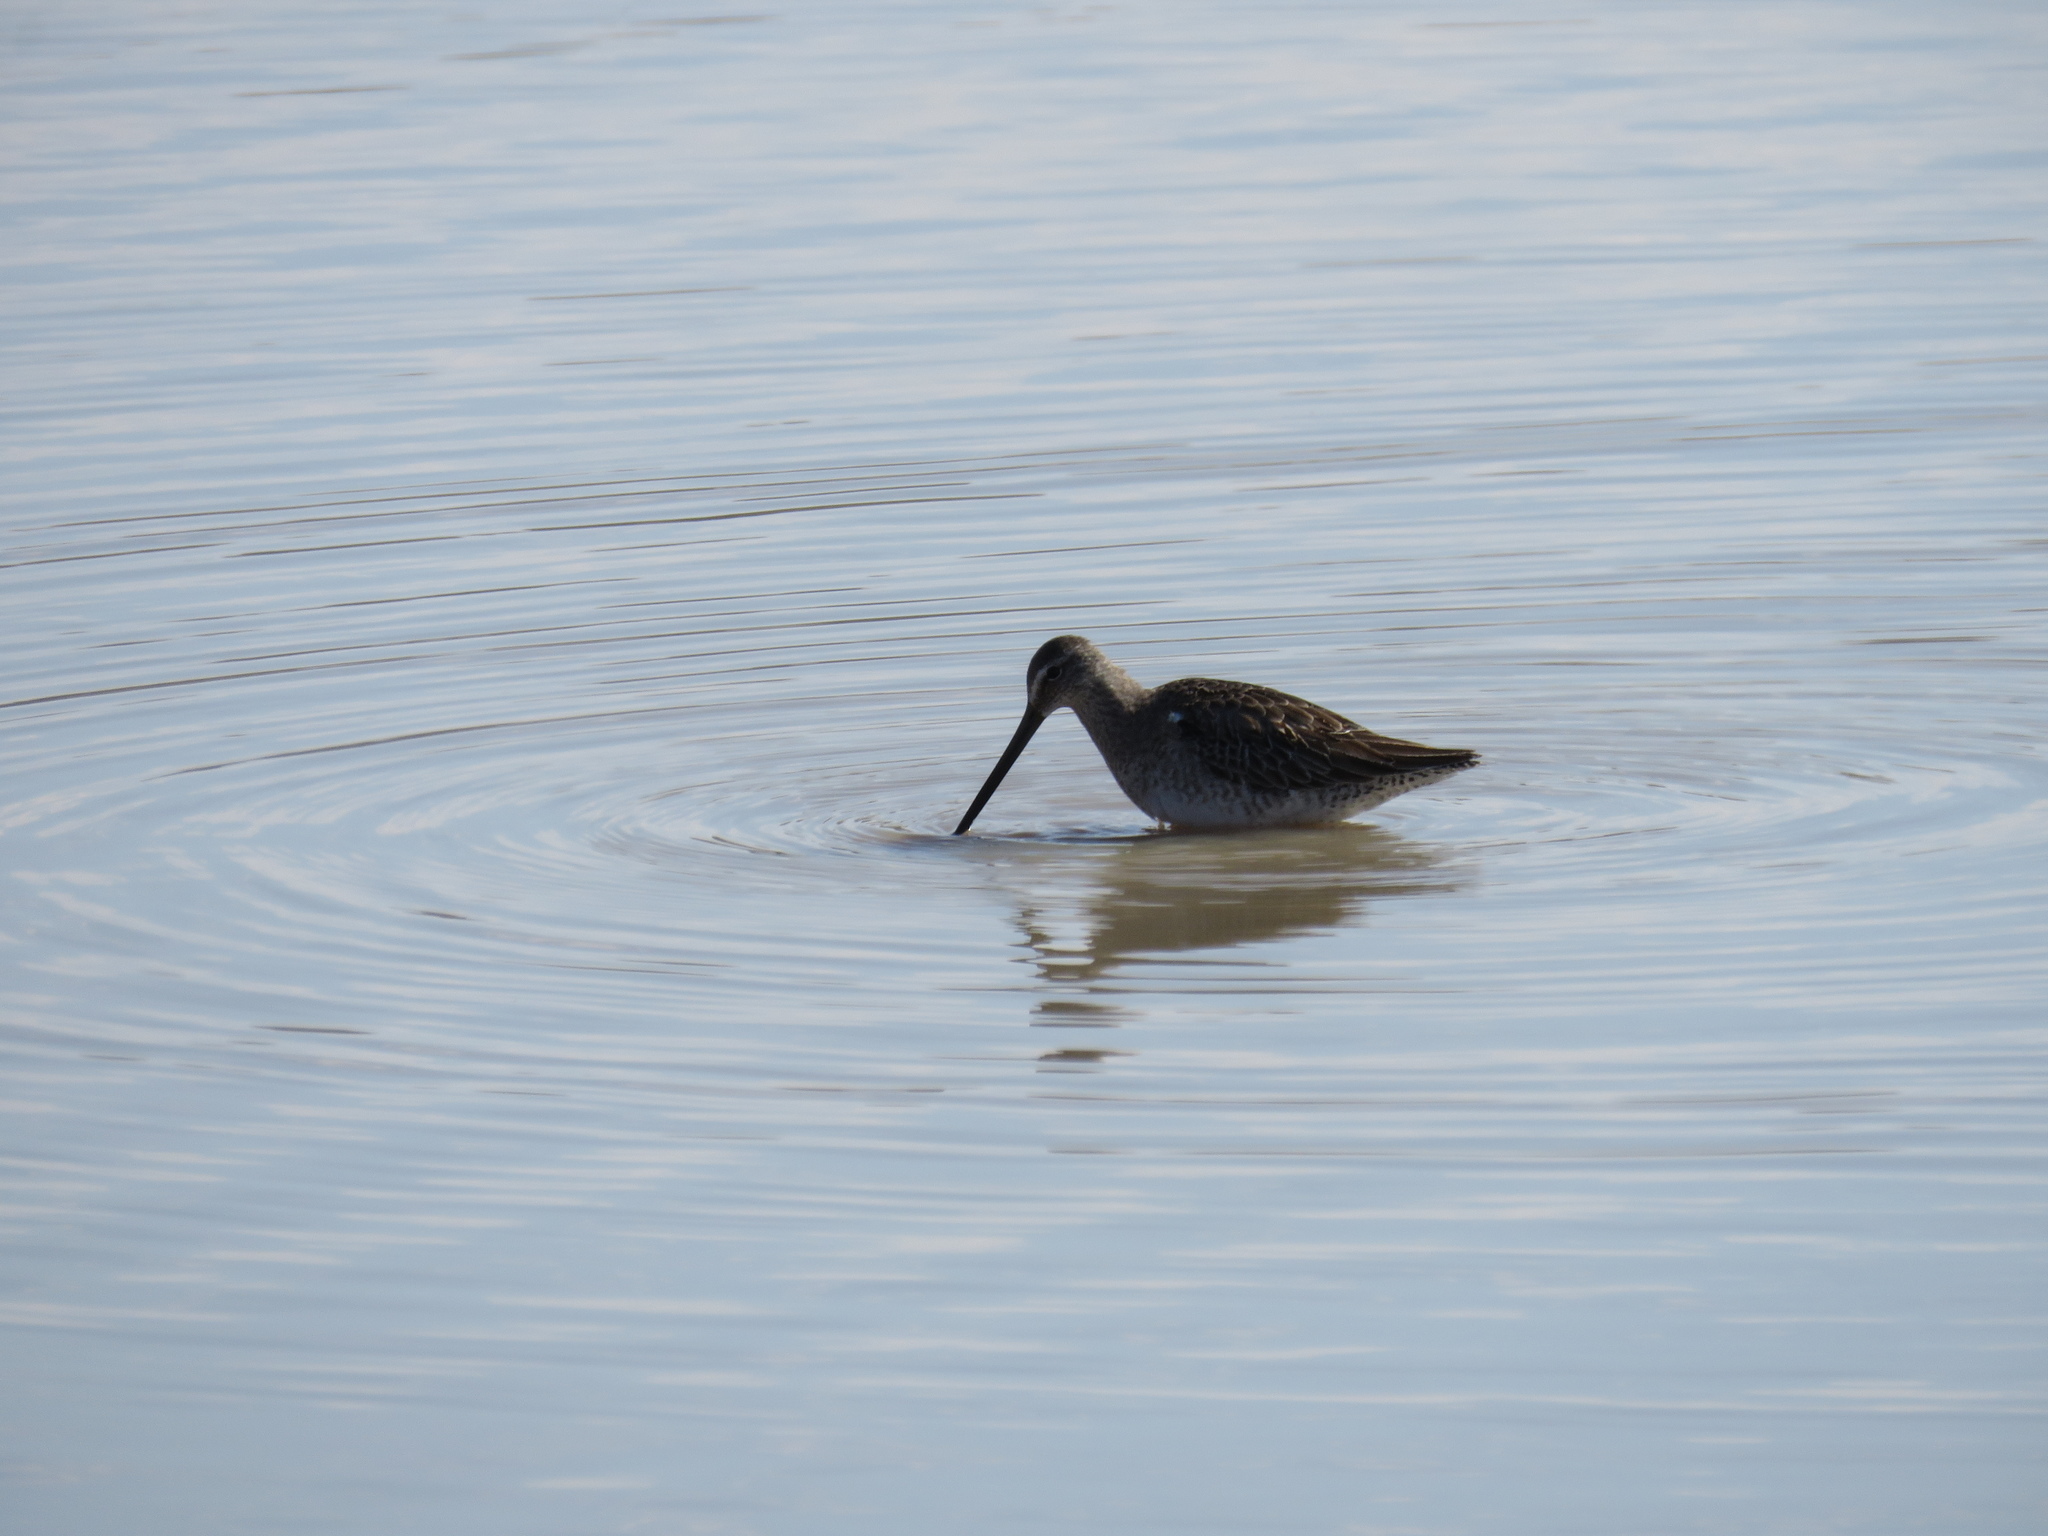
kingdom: Animalia
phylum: Chordata
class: Aves
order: Charadriiformes
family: Scolopacidae
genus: Limnodromus
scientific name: Limnodromus scolopaceus
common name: Long-billed dowitcher
